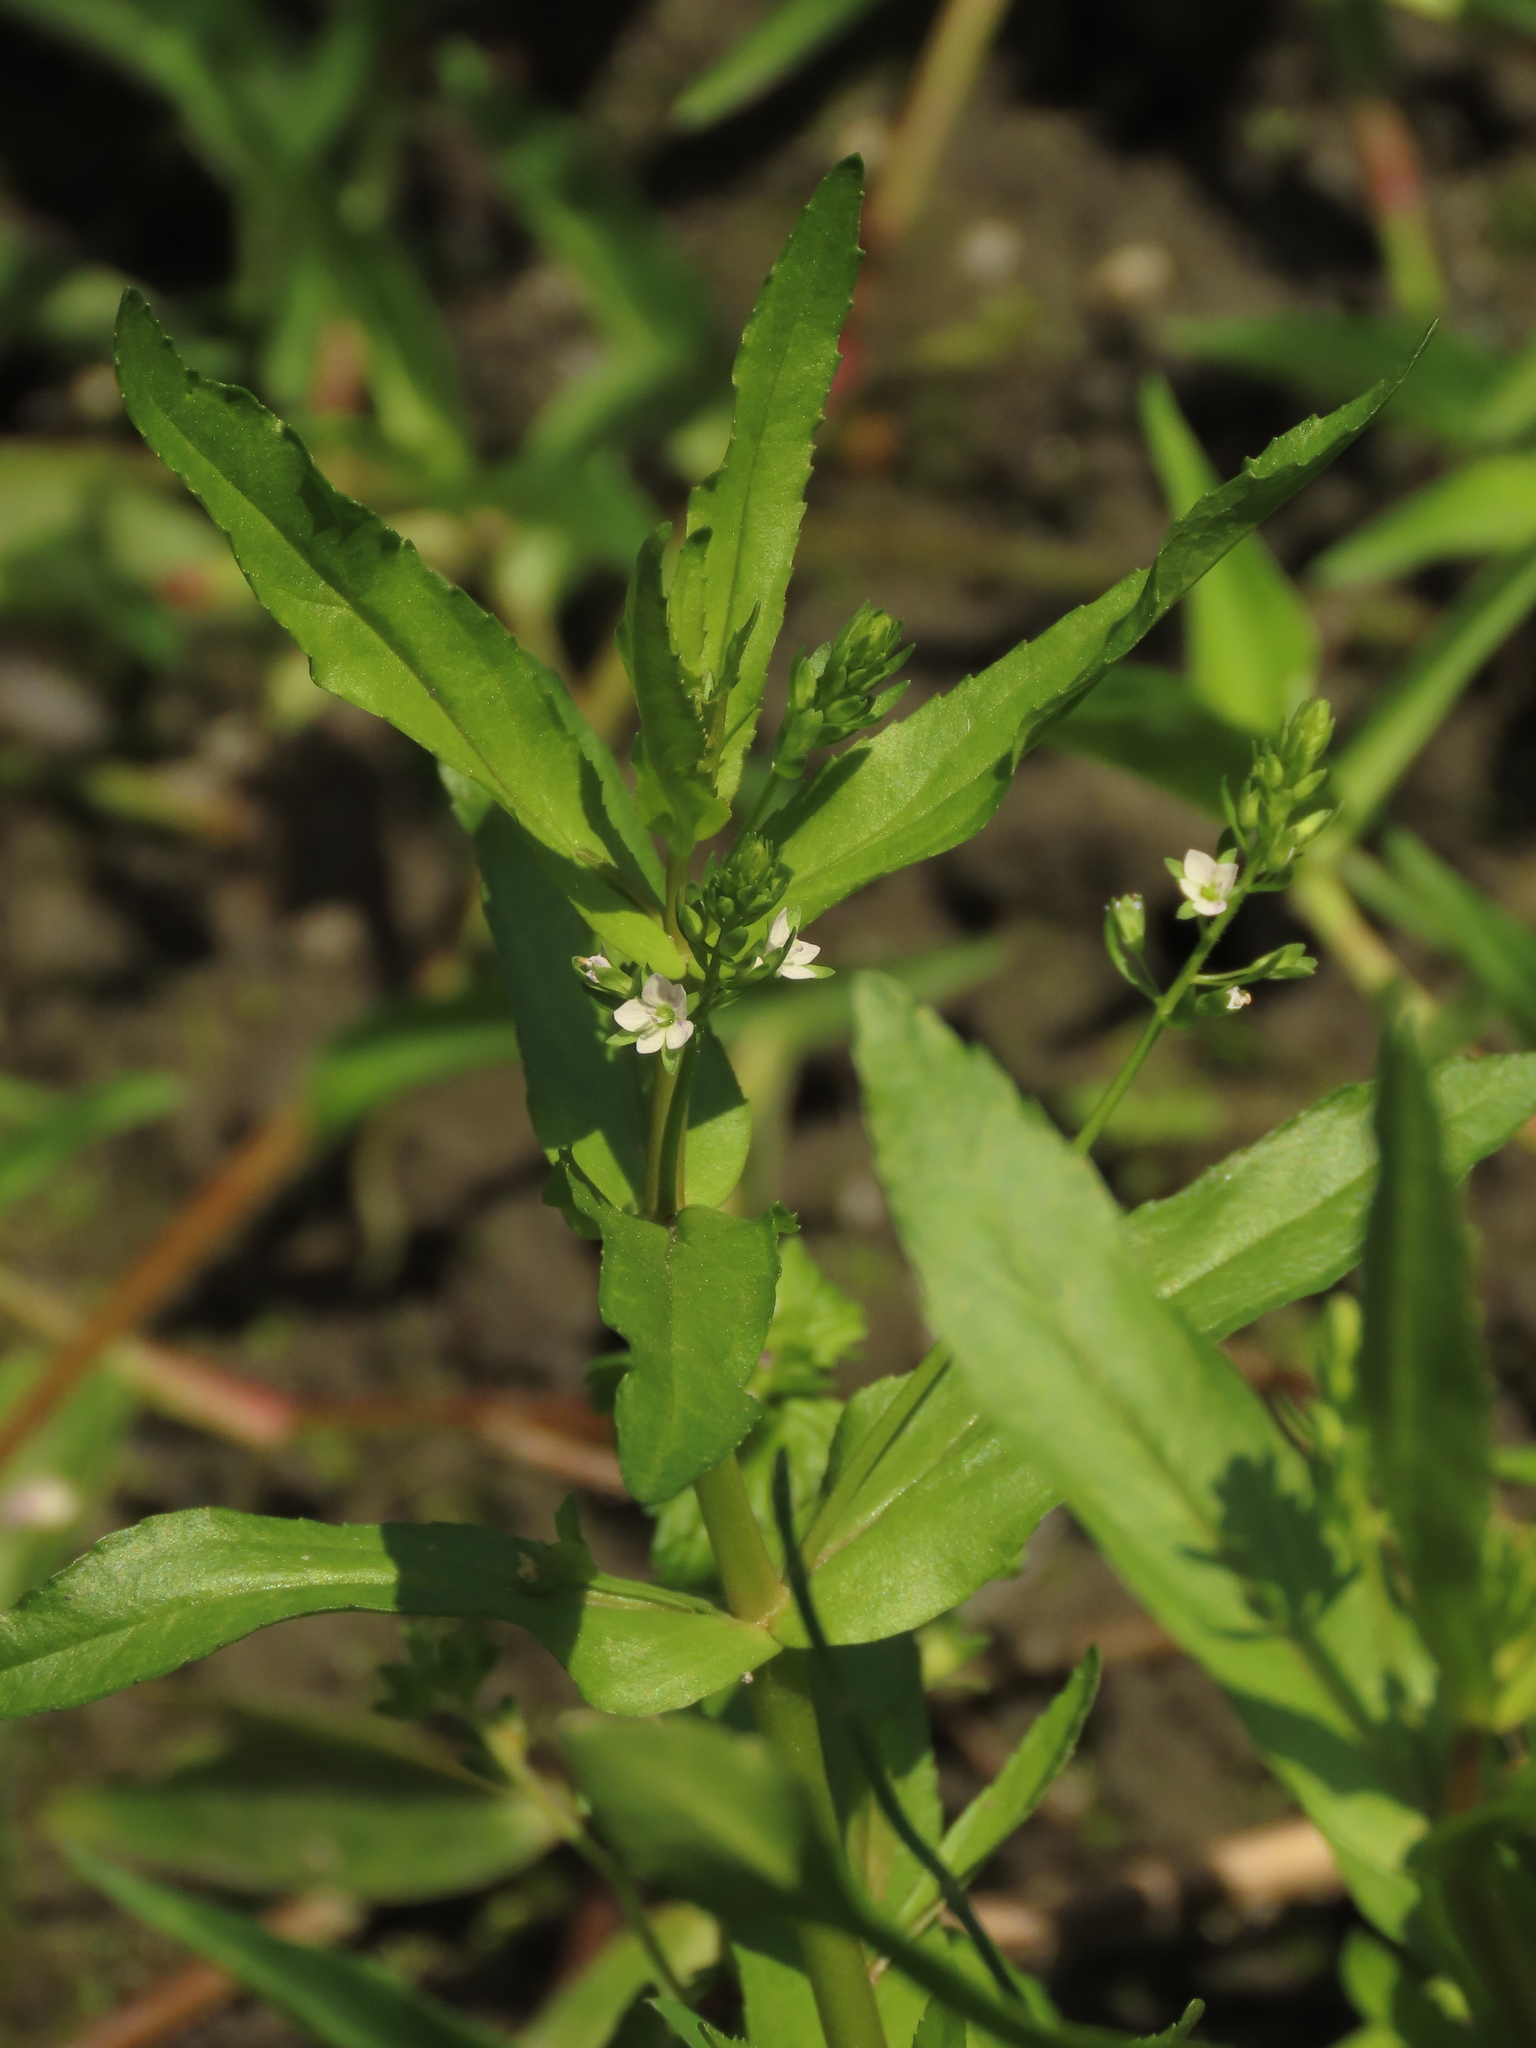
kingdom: Plantae
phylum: Tracheophyta
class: Magnoliopsida
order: Lamiales
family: Plantaginaceae
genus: Veronica
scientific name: Veronica undulata
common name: Undulate speedwell
